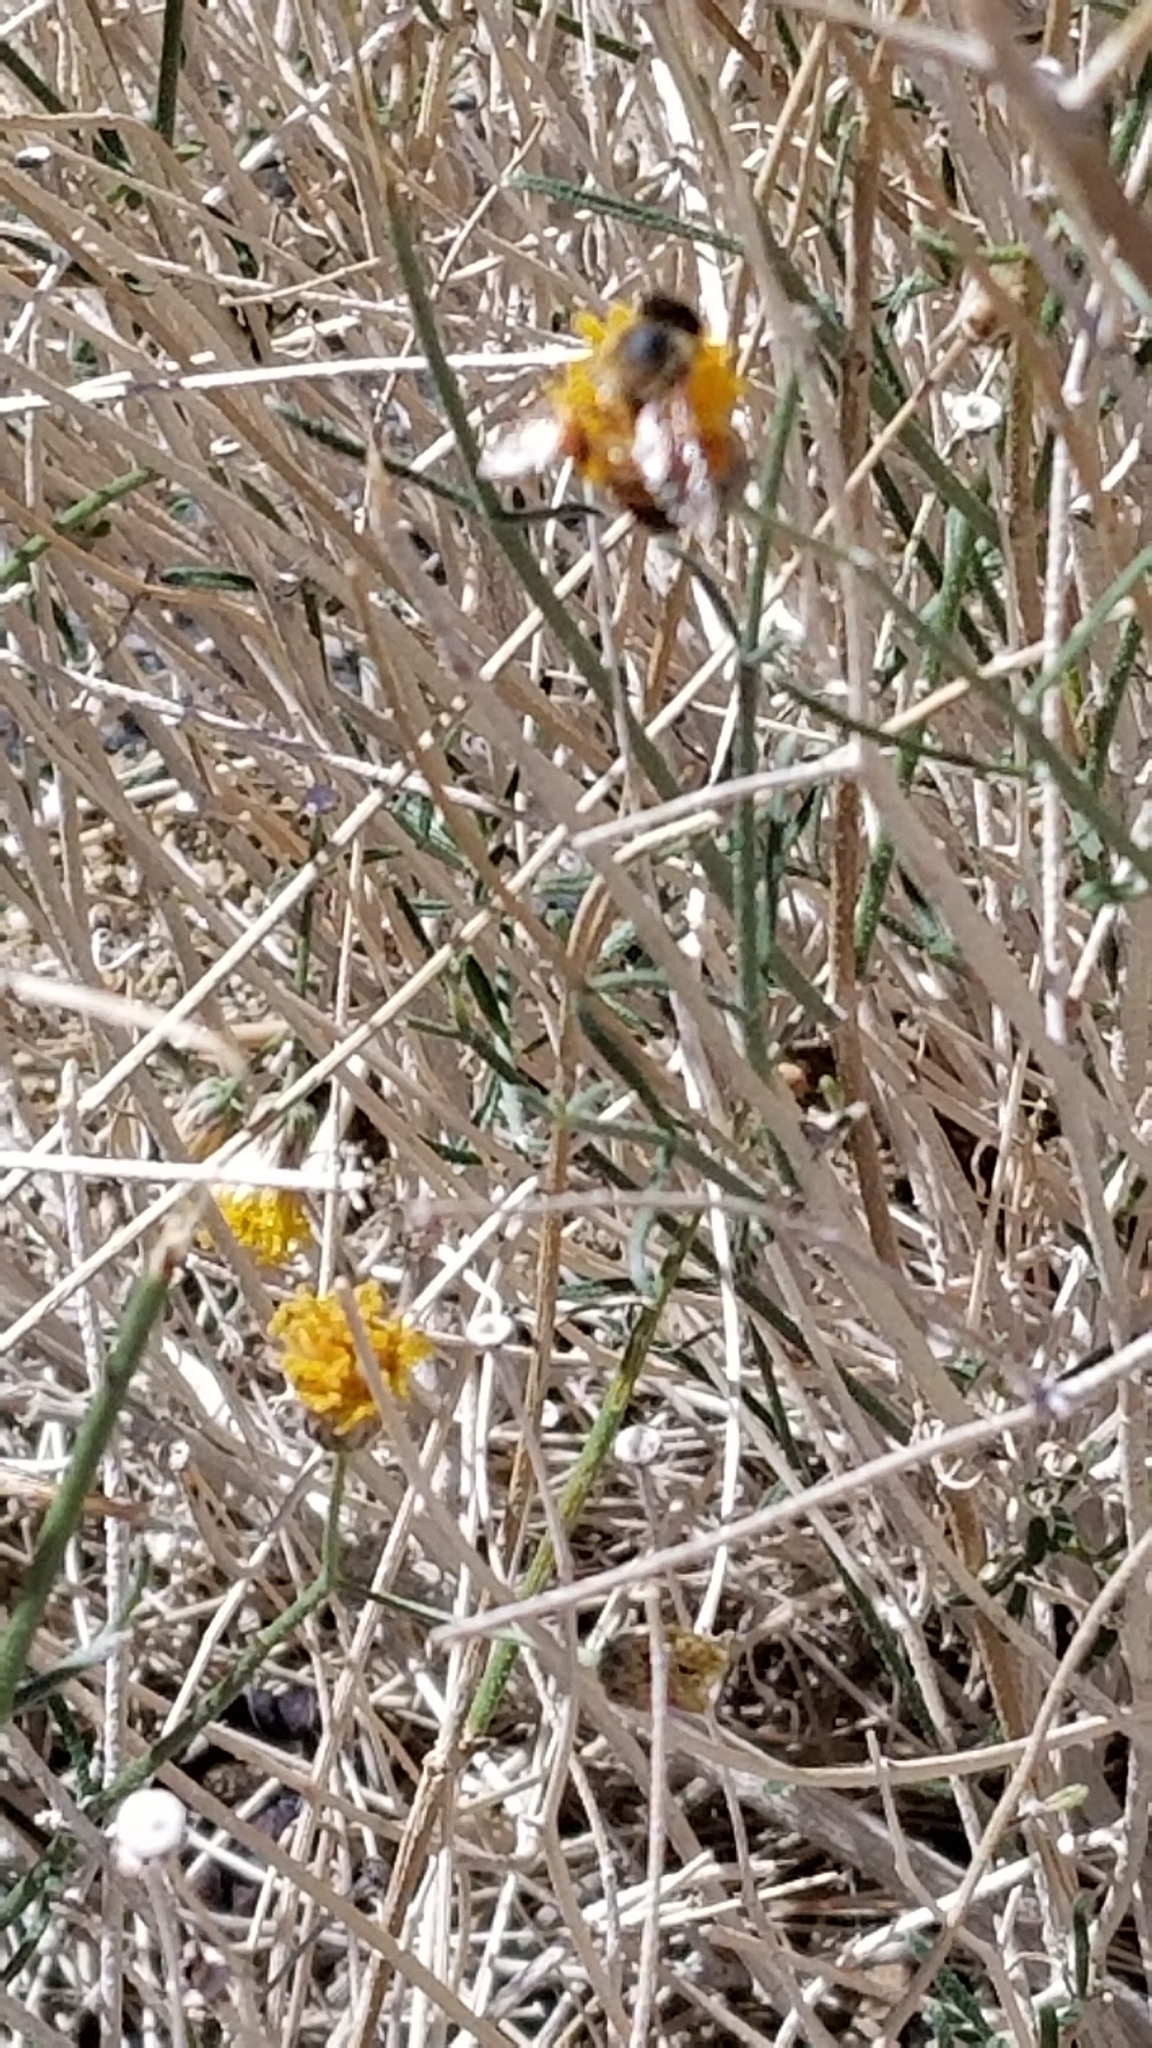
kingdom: Plantae
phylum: Tracheophyta
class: Magnoliopsida
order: Asterales
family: Asteraceae
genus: Bebbia
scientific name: Bebbia juncea
